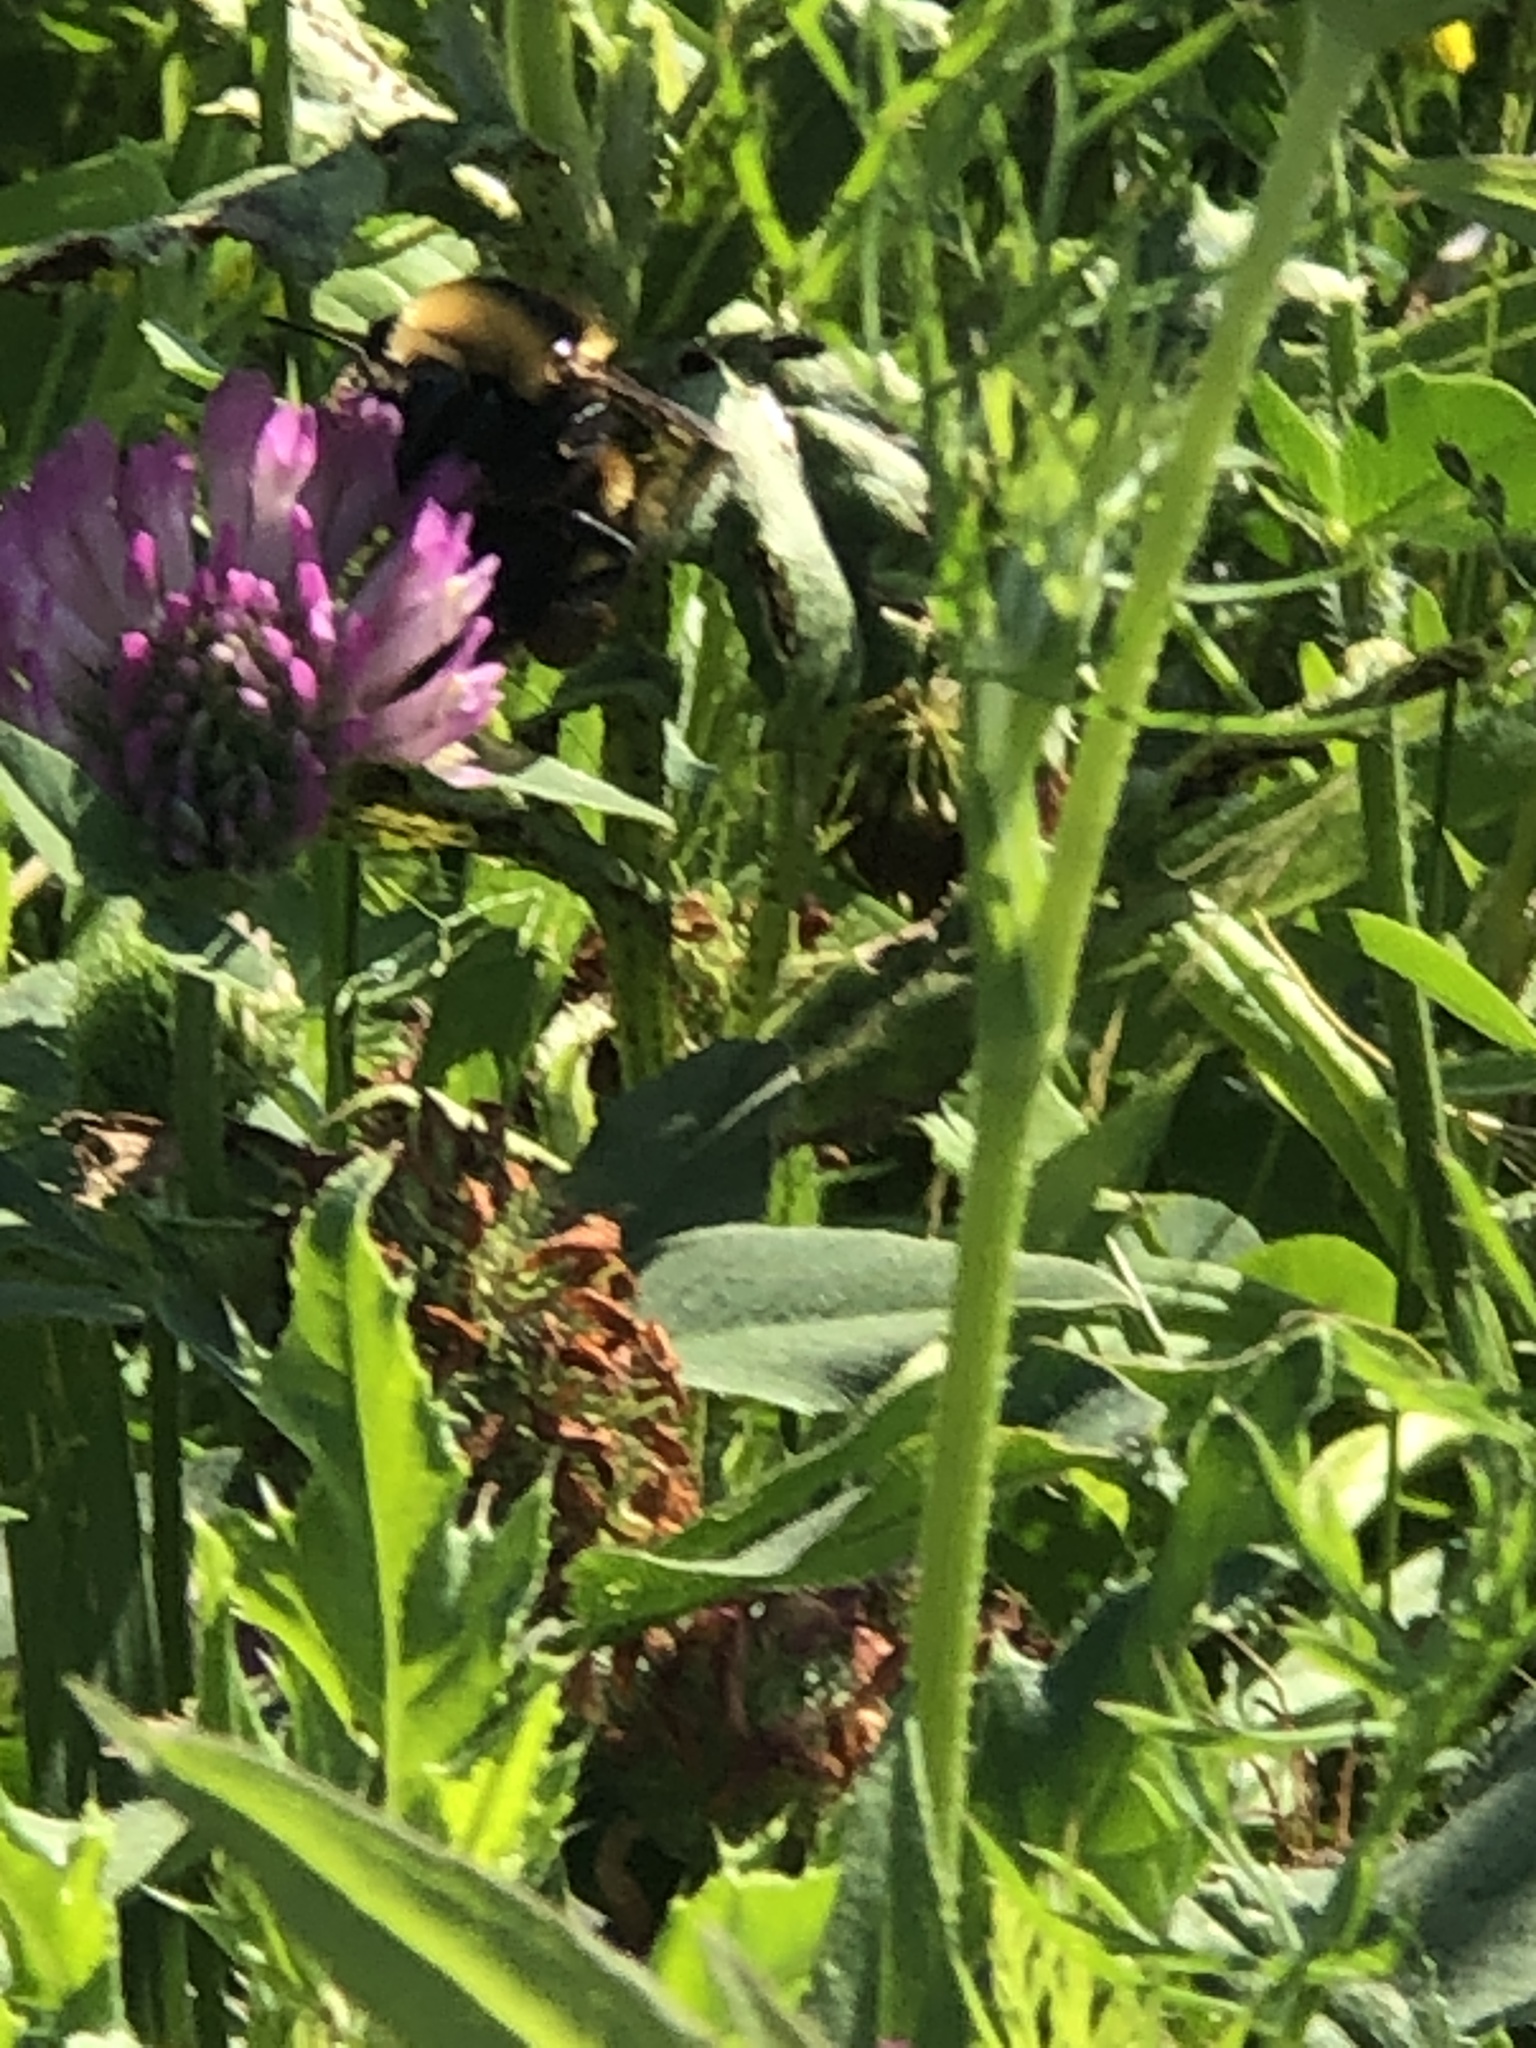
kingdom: Animalia
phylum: Arthropoda
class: Insecta
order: Hymenoptera
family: Apidae
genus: Bombus
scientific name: Bombus borealis
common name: Northern amber bumble bee
